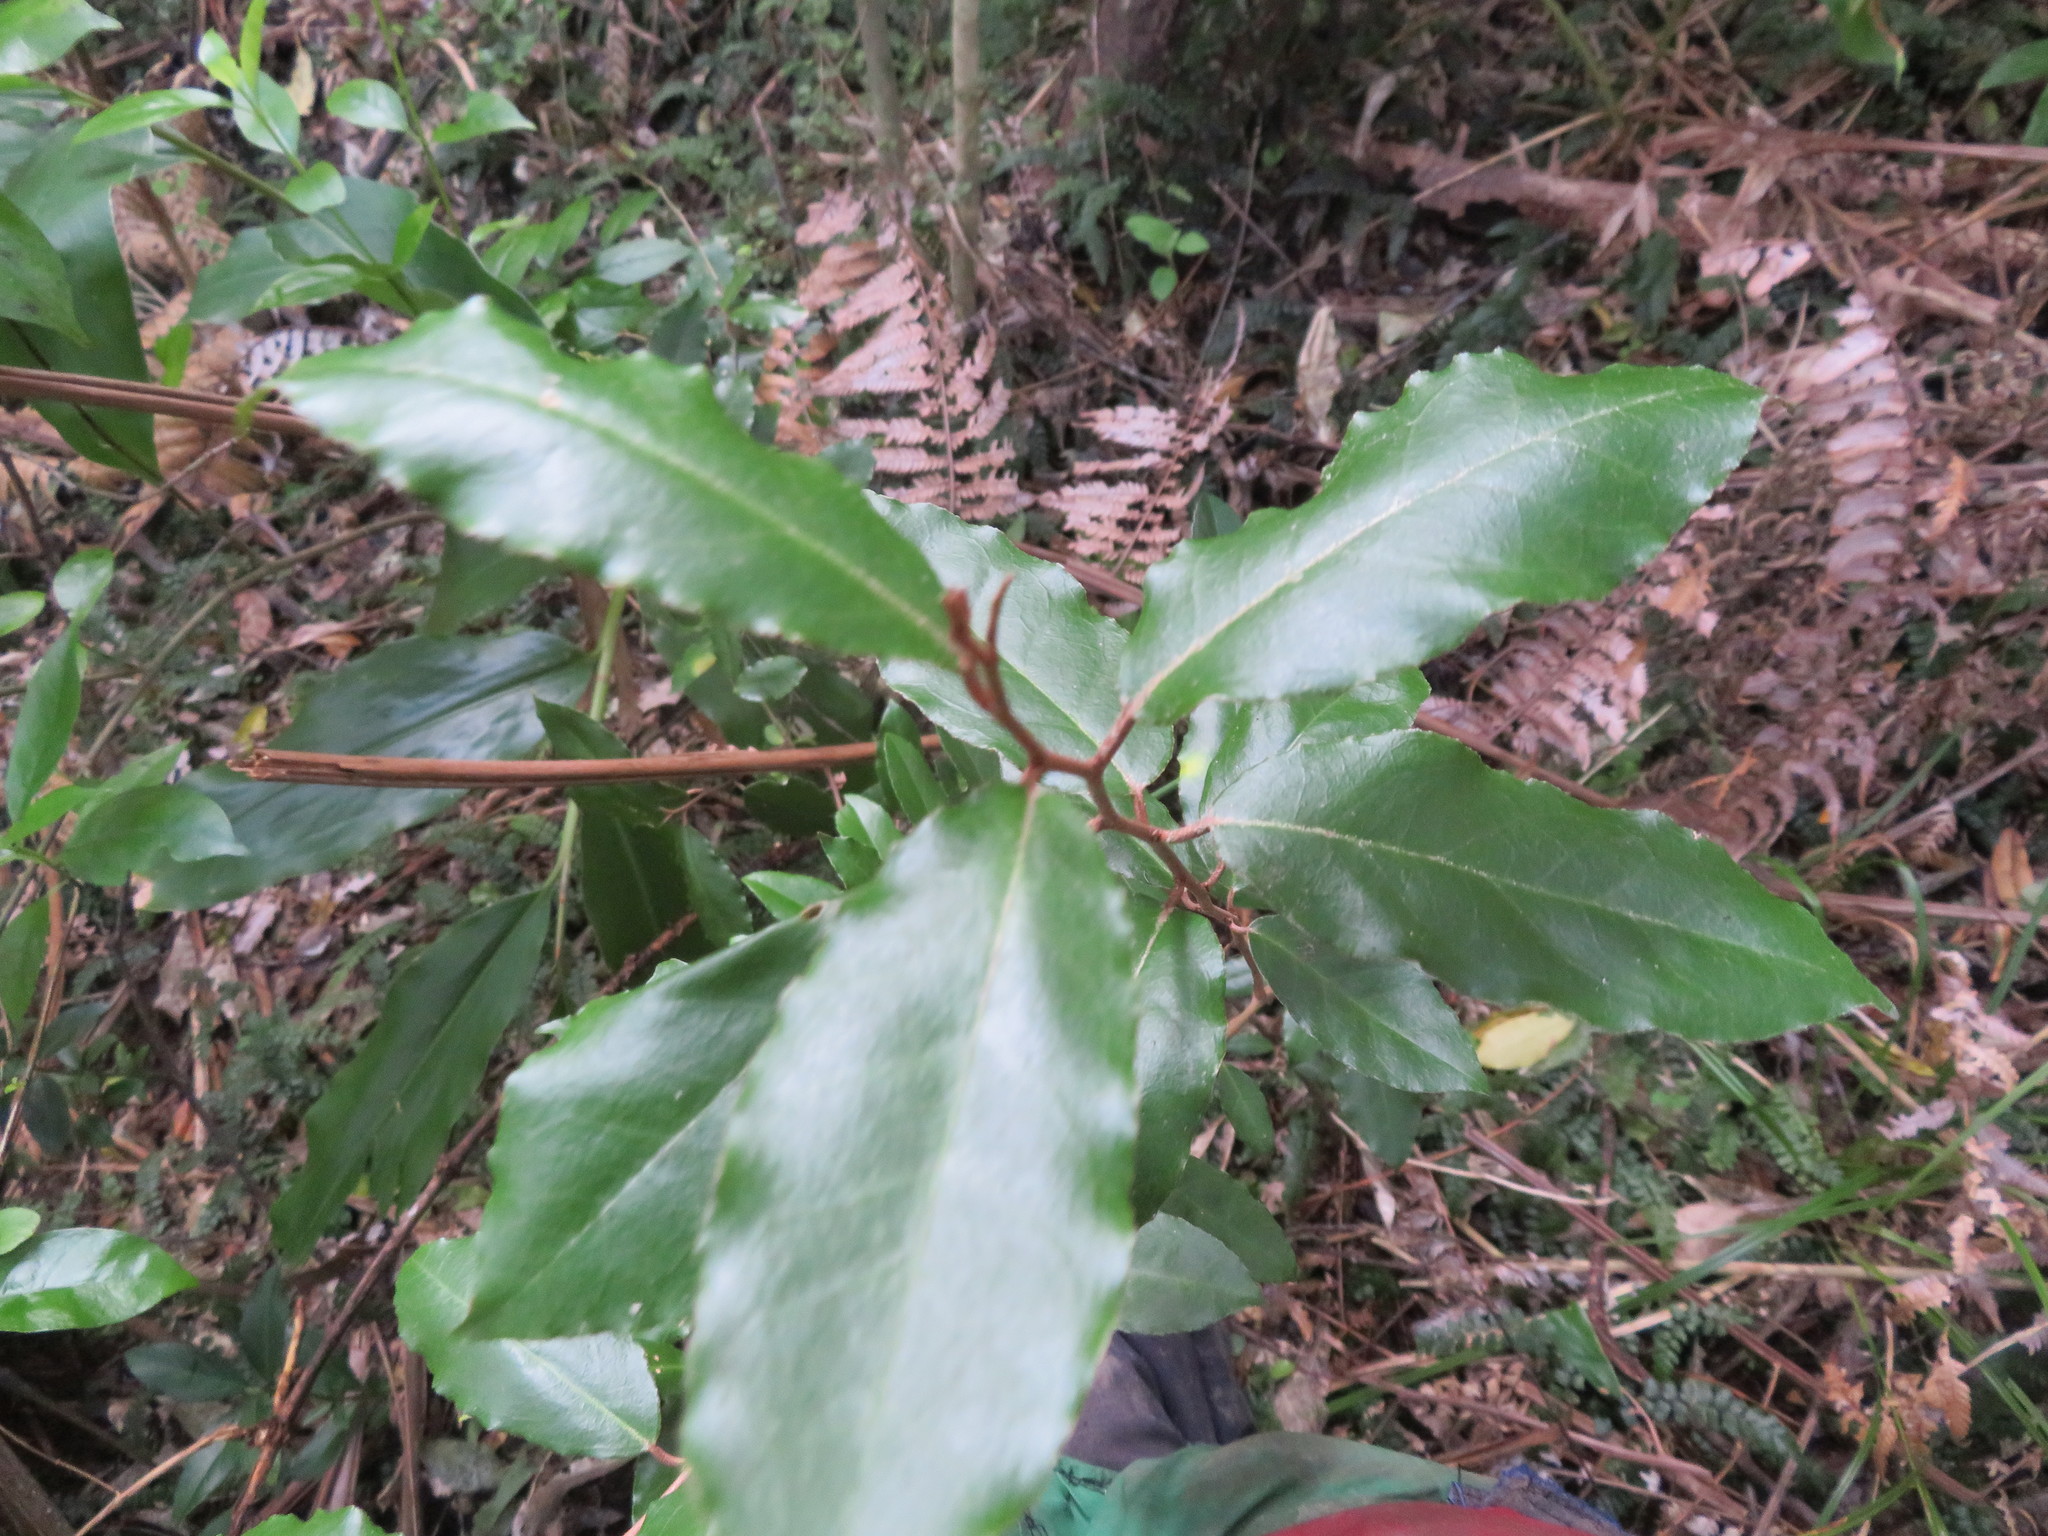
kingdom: Plantae
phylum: Tracheophyta
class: Magnoliopsida
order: Rosales
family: Elaeagnaceae
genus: Elaeagnus
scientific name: Elaeagnus reflexa
